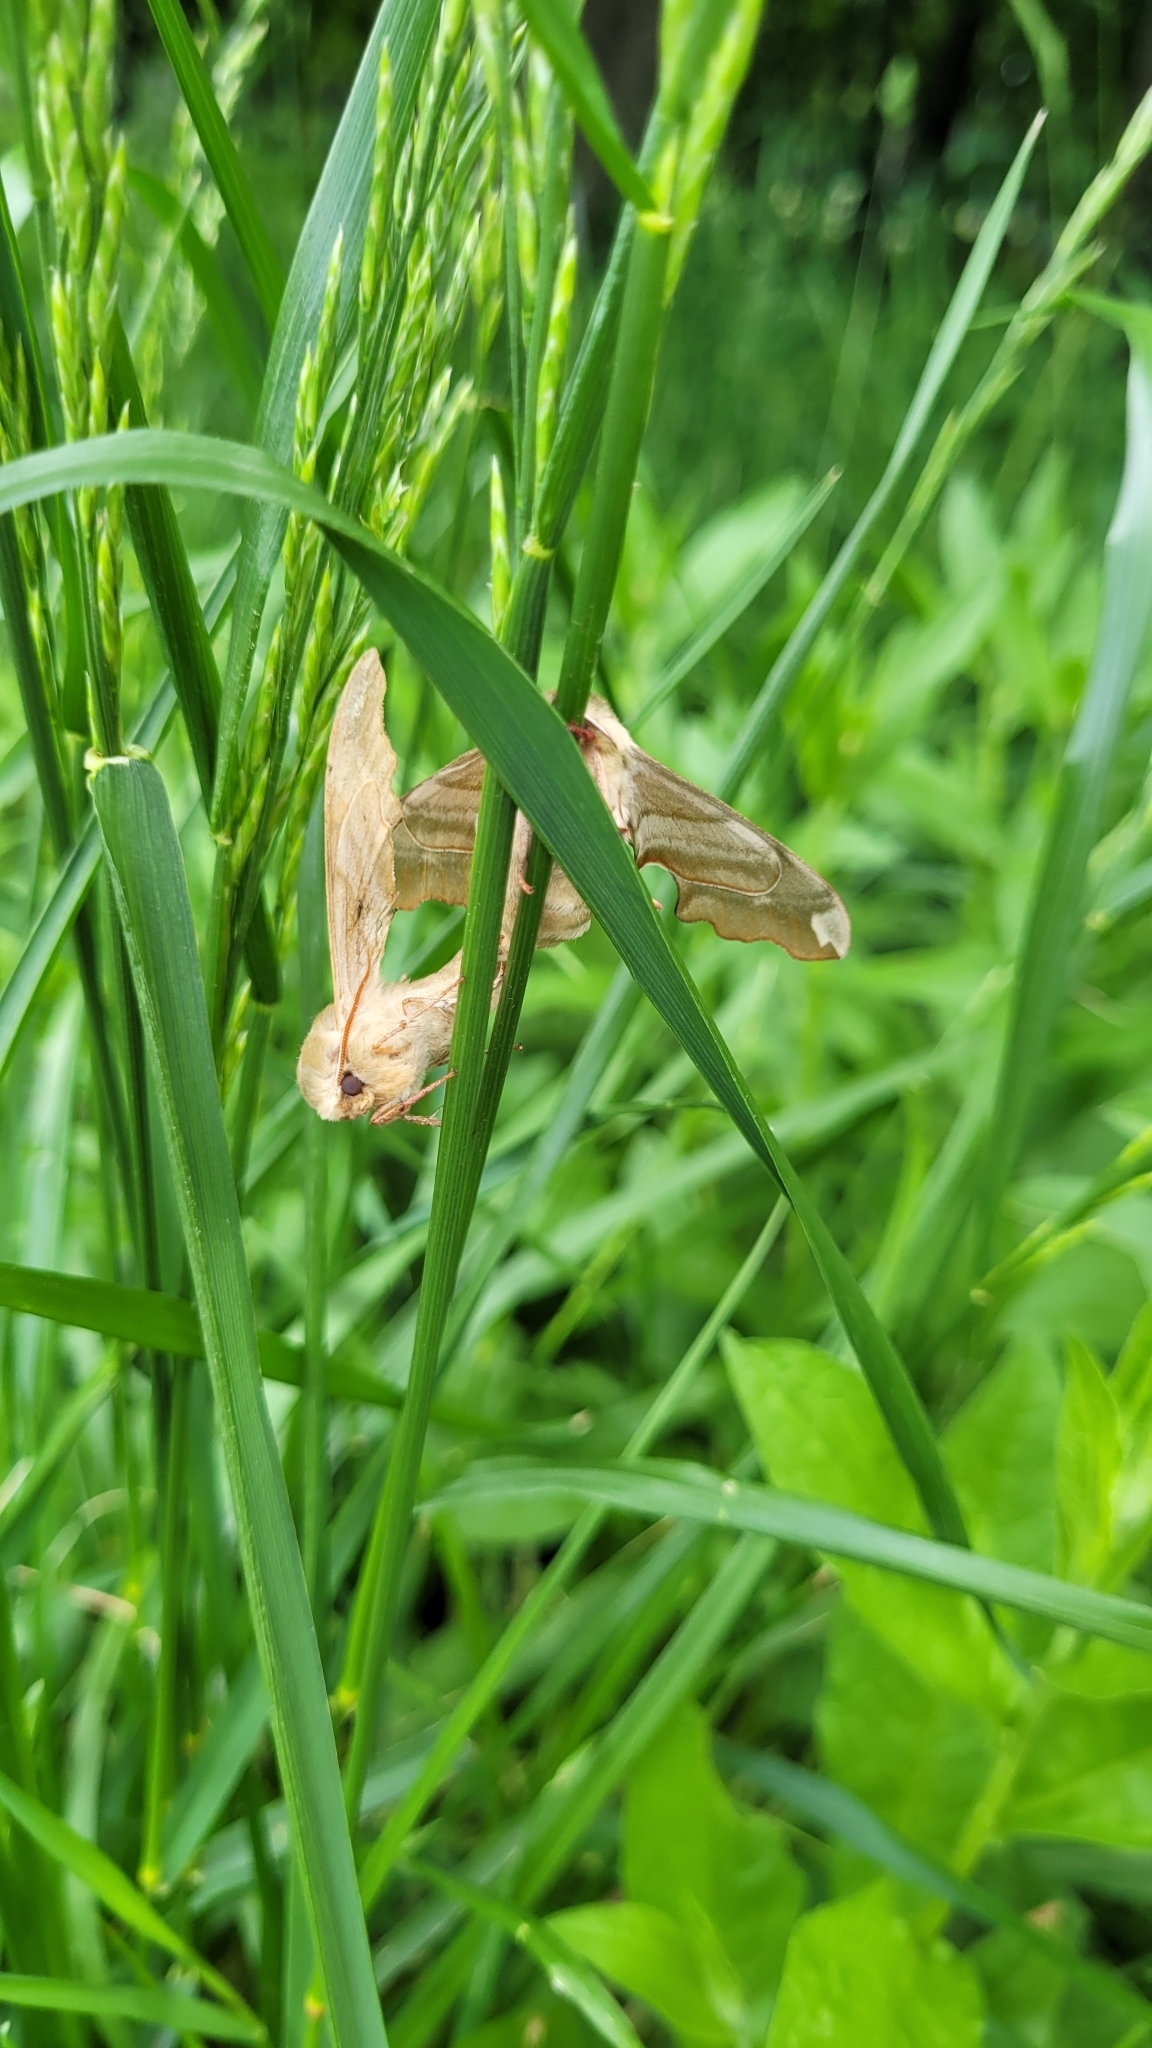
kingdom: Animalia
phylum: Arthropoda
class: Insecta
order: Lepidoptera
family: Sphingidae
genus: Mimas
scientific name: Mimas tiliae
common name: Lime hawk-moth
